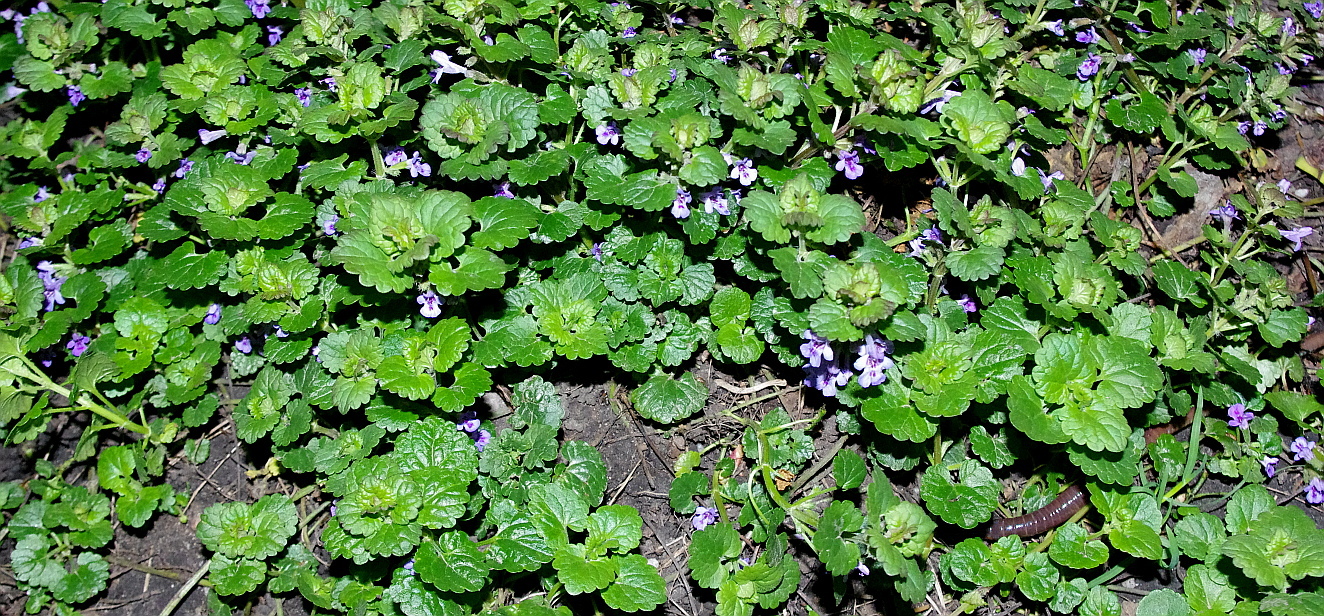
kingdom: Plantae
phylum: Tracheophyta
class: Magnoliopsida
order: Lamiales
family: Lamiaceae
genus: Glechoma
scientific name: Glechoma hederacea
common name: Ground ivy
